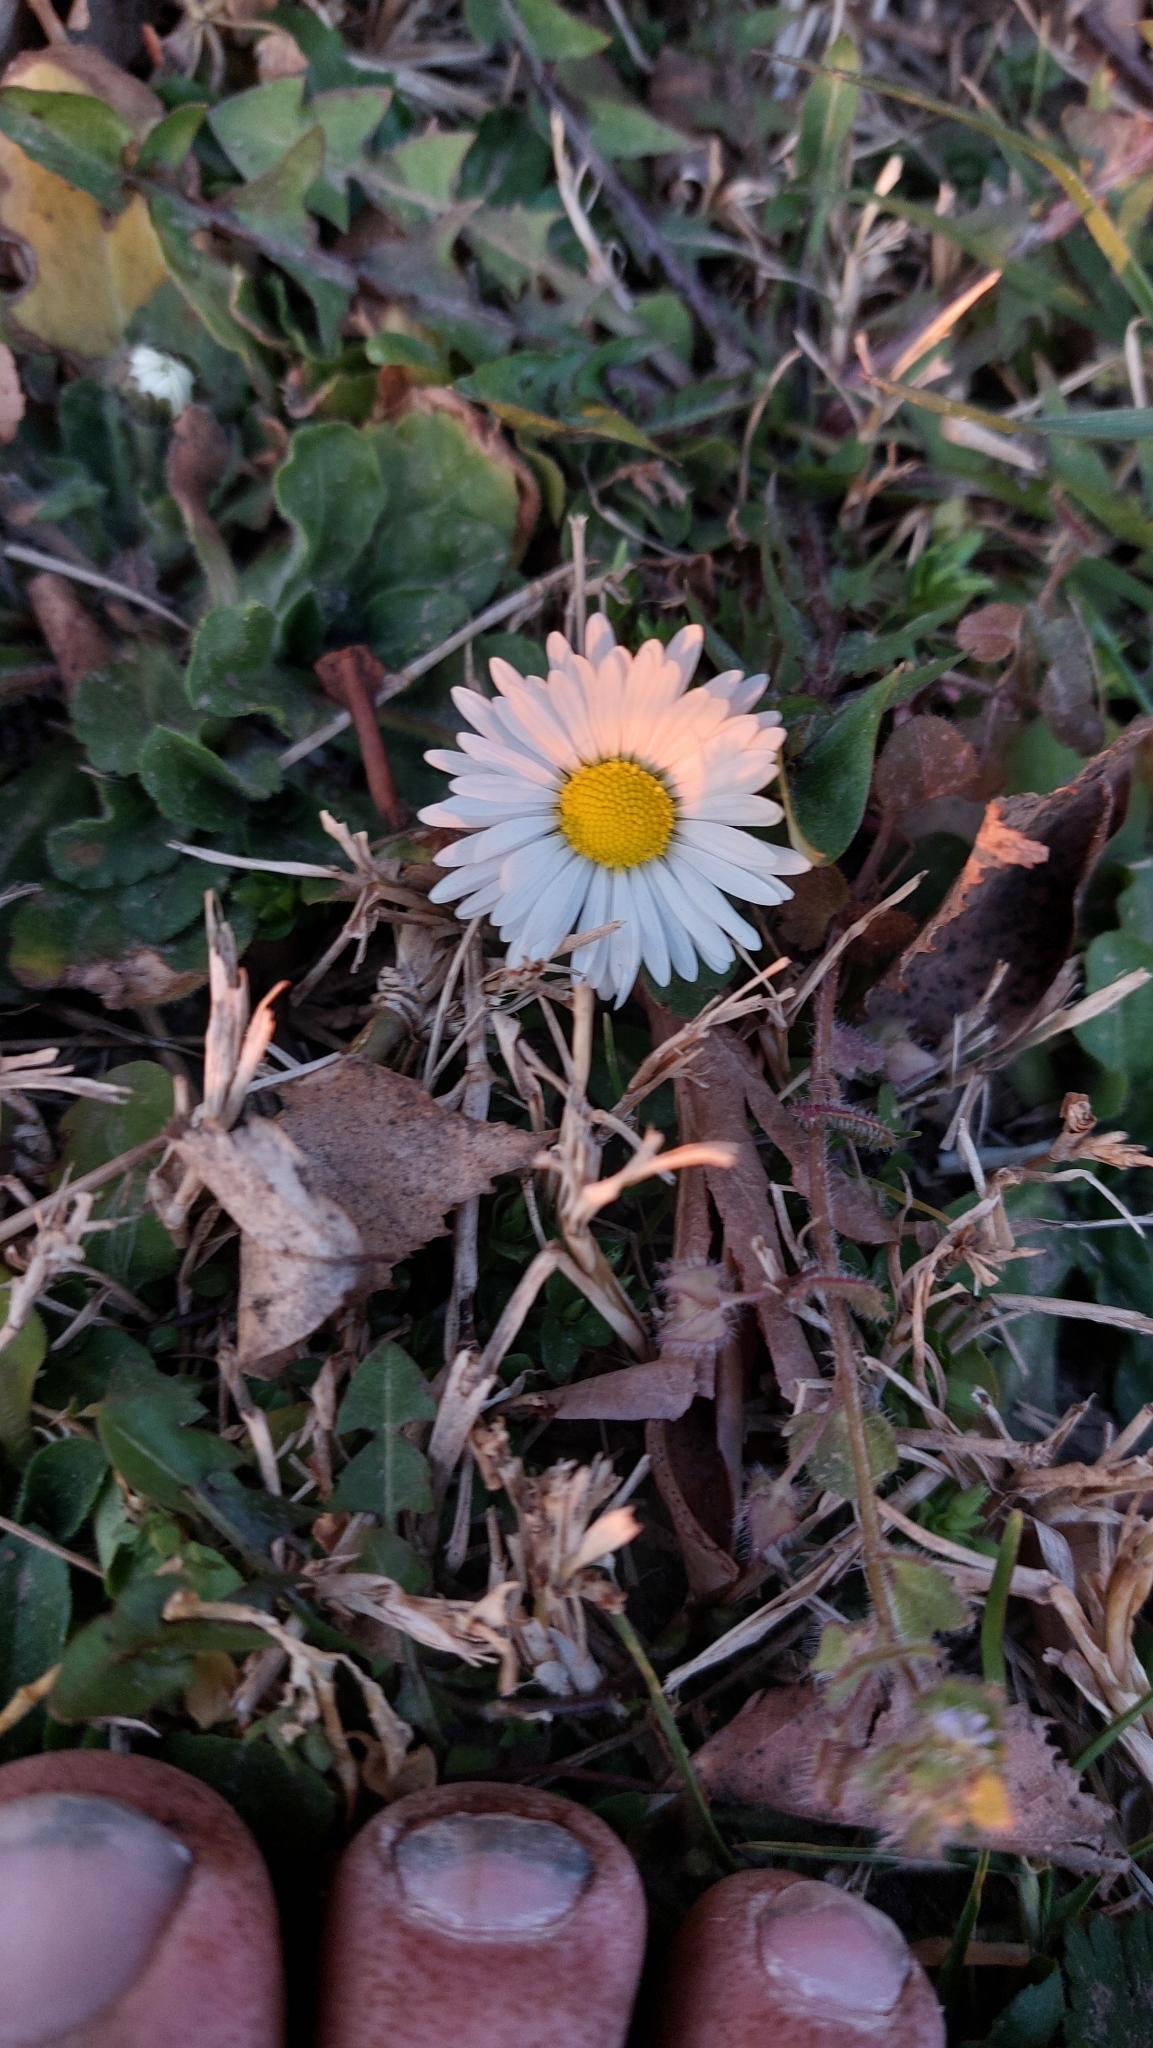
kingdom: Plantae
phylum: Tracheophyta
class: Magnoliopsida
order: Asterales
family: Asteraceae
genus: Bellis
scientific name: Bellis perennis
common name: Lawndaisy
